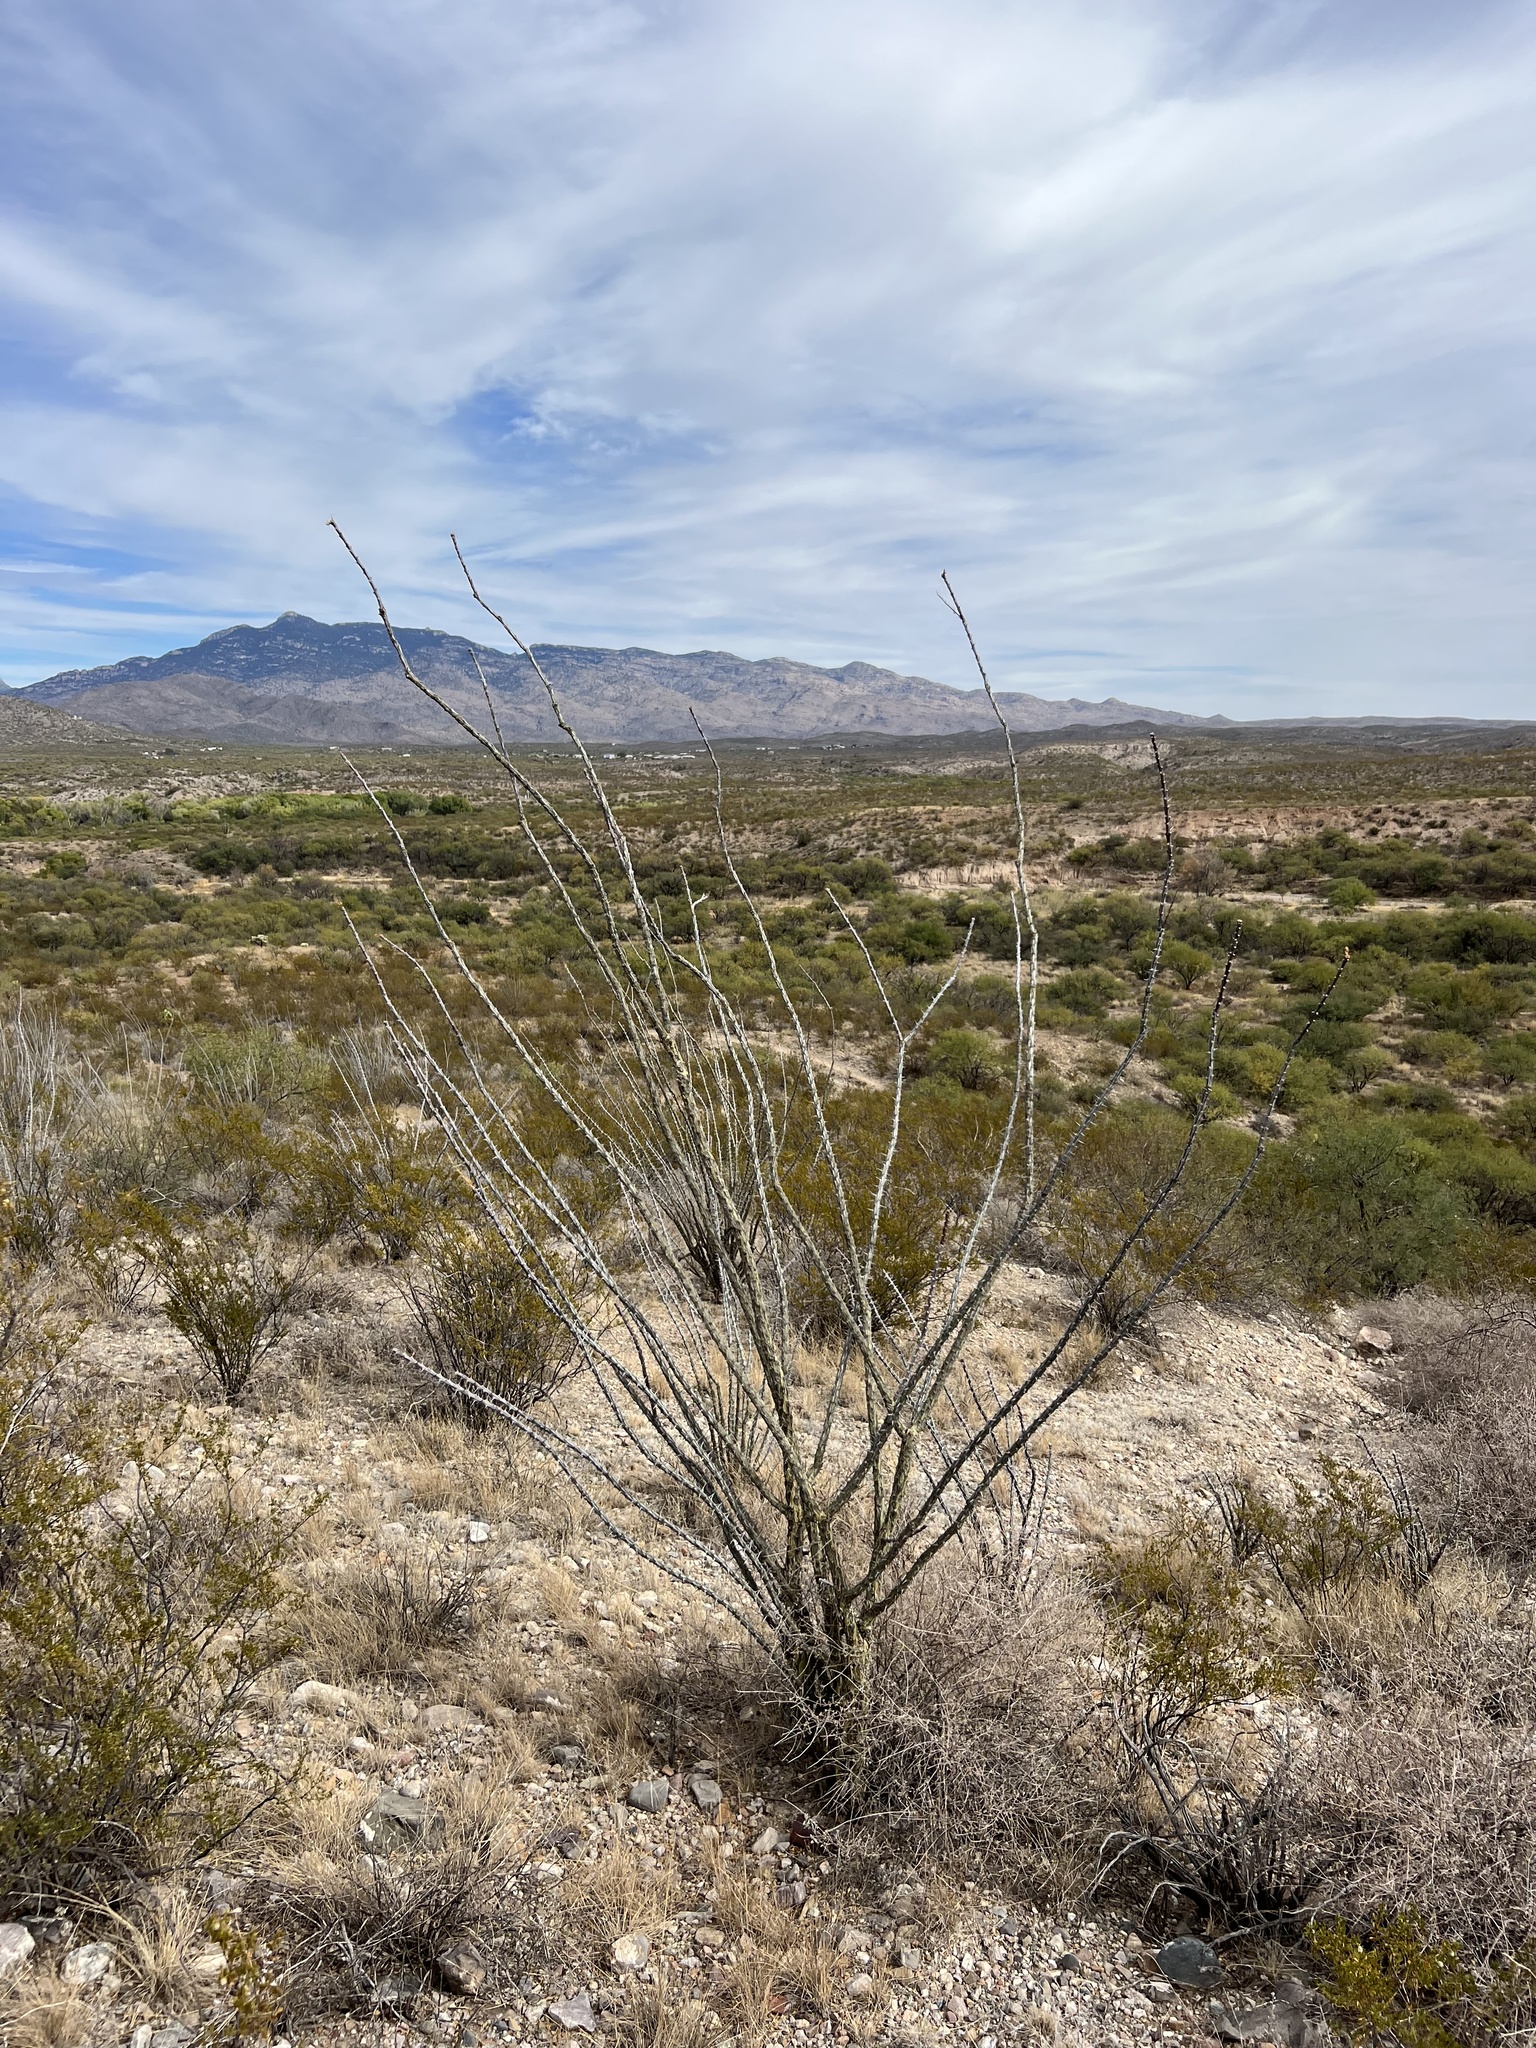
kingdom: Plantae
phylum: Tracheophyta
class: Magnoliopsida
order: Ericales
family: Fouquieriaceae
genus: Fouquieria
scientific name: Fouquieria splendens
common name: Vine-cactus
